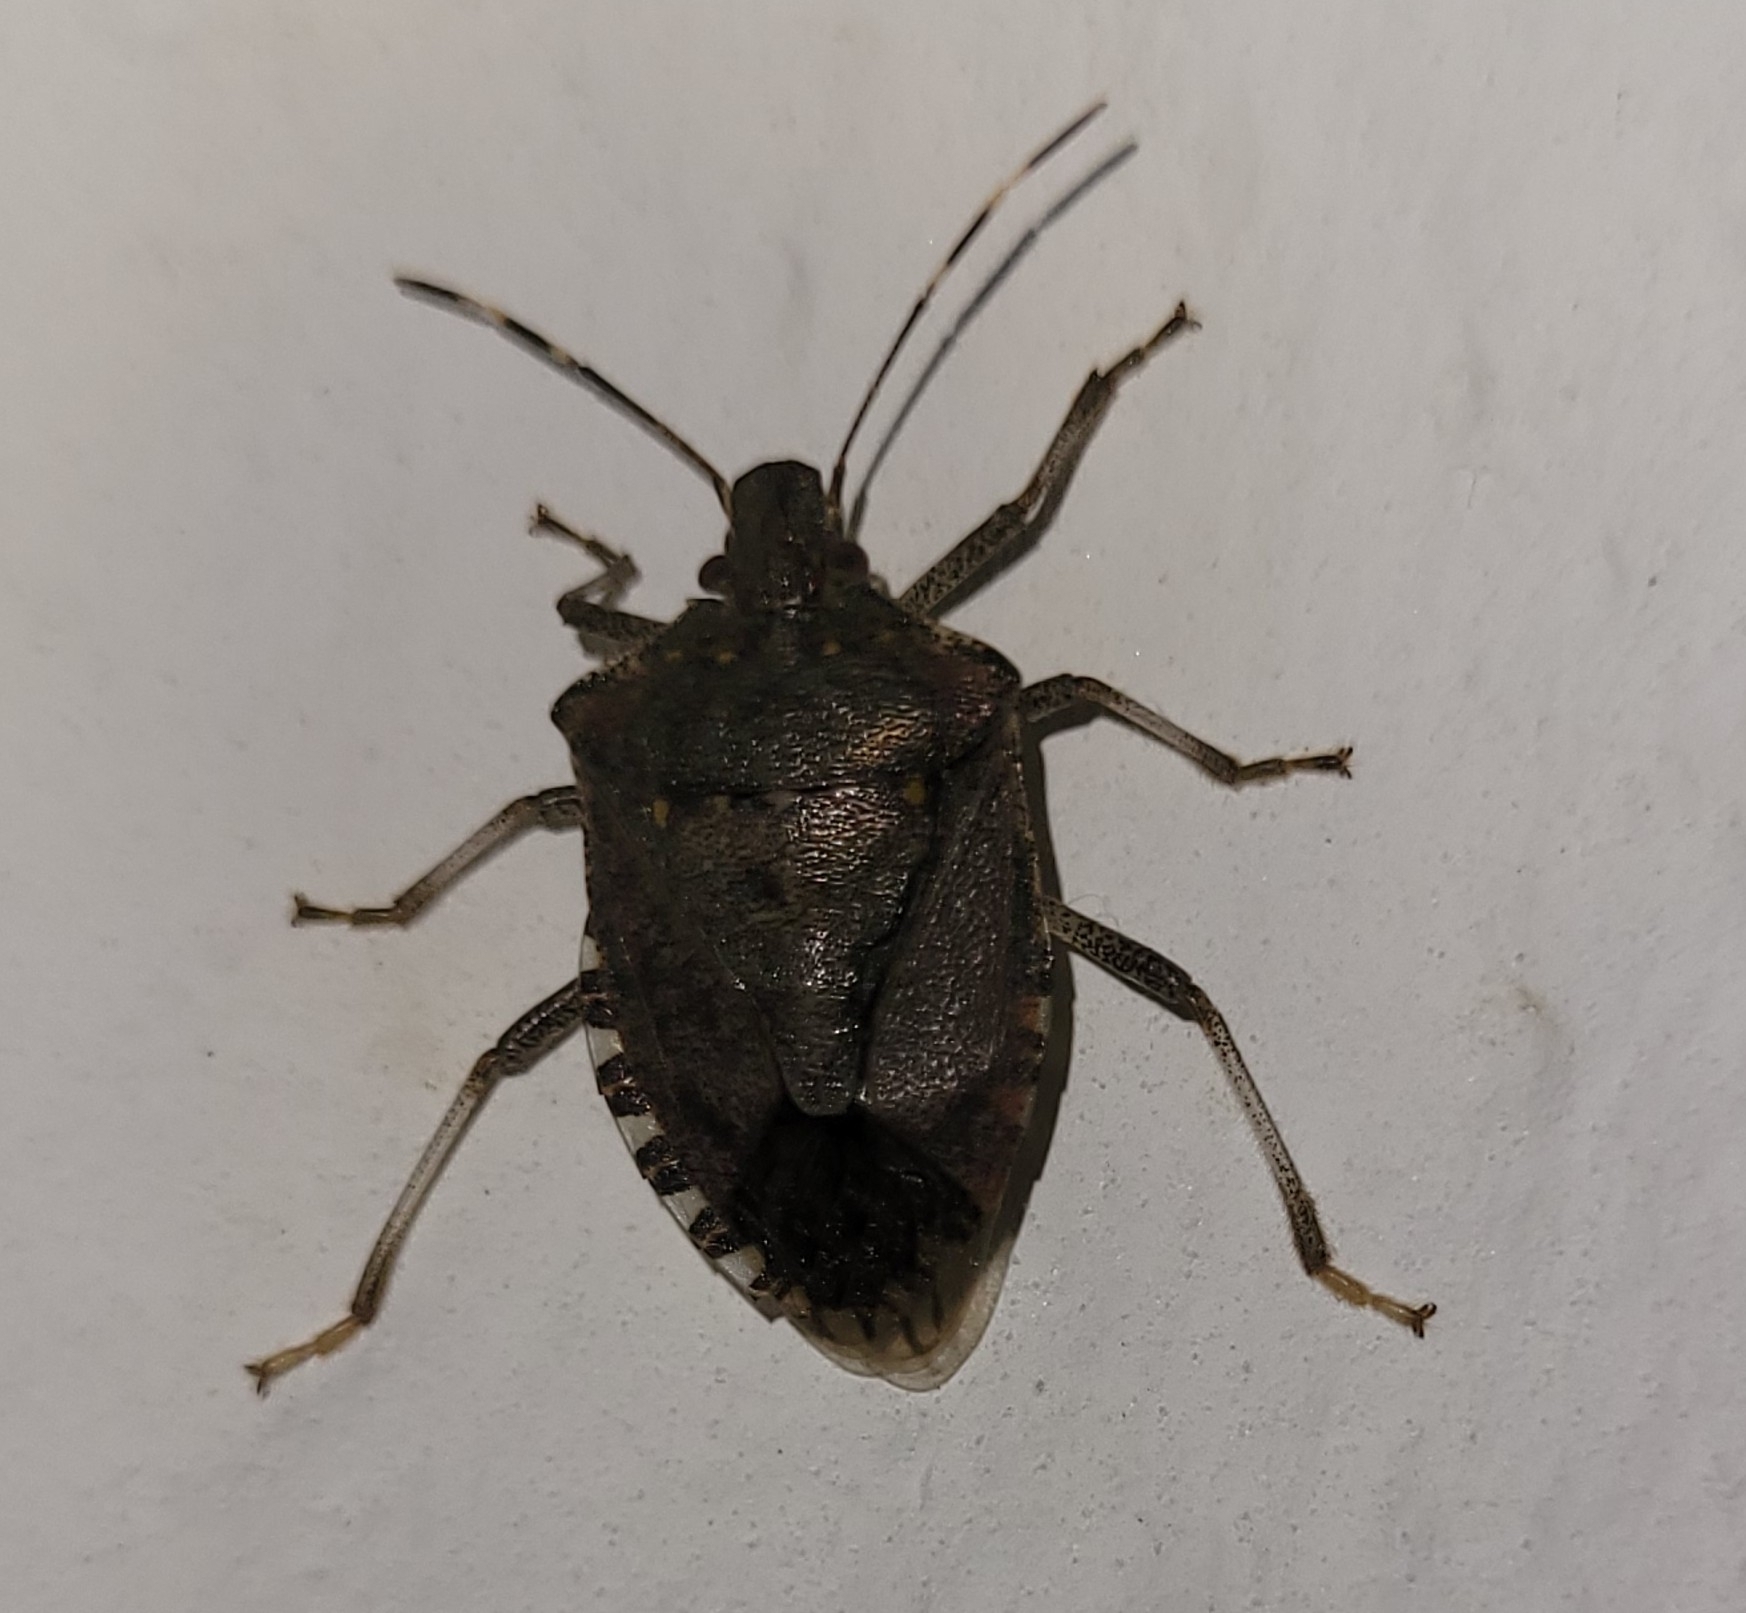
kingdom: Animalia
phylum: Arthropoda
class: Insecta
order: Hemiptera
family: Pentatomidae
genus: Halyomorpha
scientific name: Halyomorpha halys
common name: Brown marmorated stink bug
